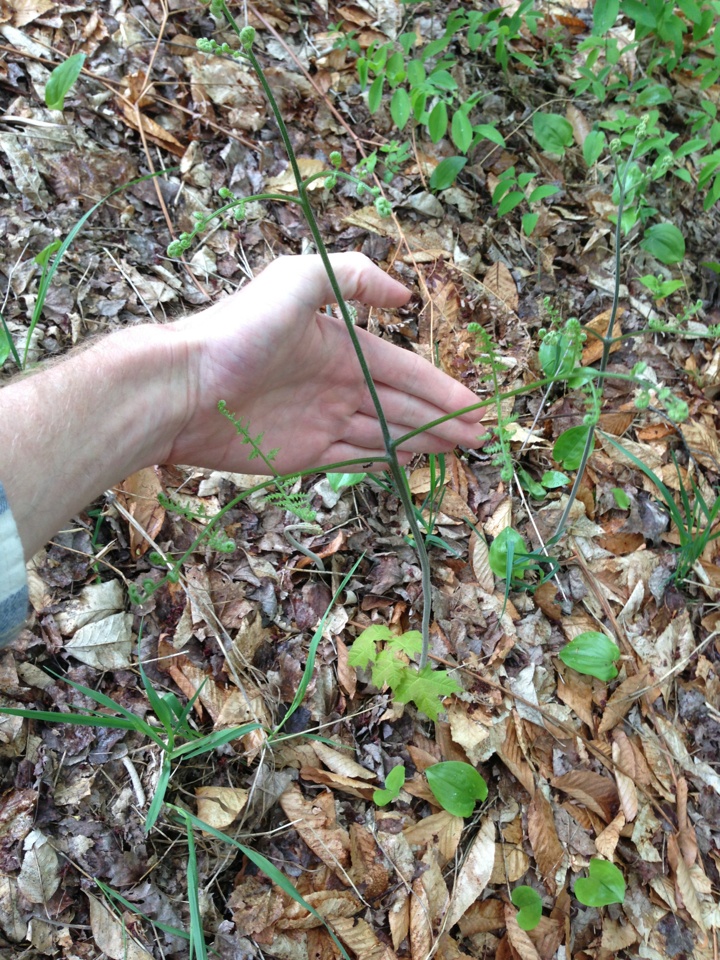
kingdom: Plantae
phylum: Tracheophyta
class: Polypodiopsida
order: Polypodiales
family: Dennstaedtiaceae
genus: Pteridium
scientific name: Pteridium aquilinum
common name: Bracken
